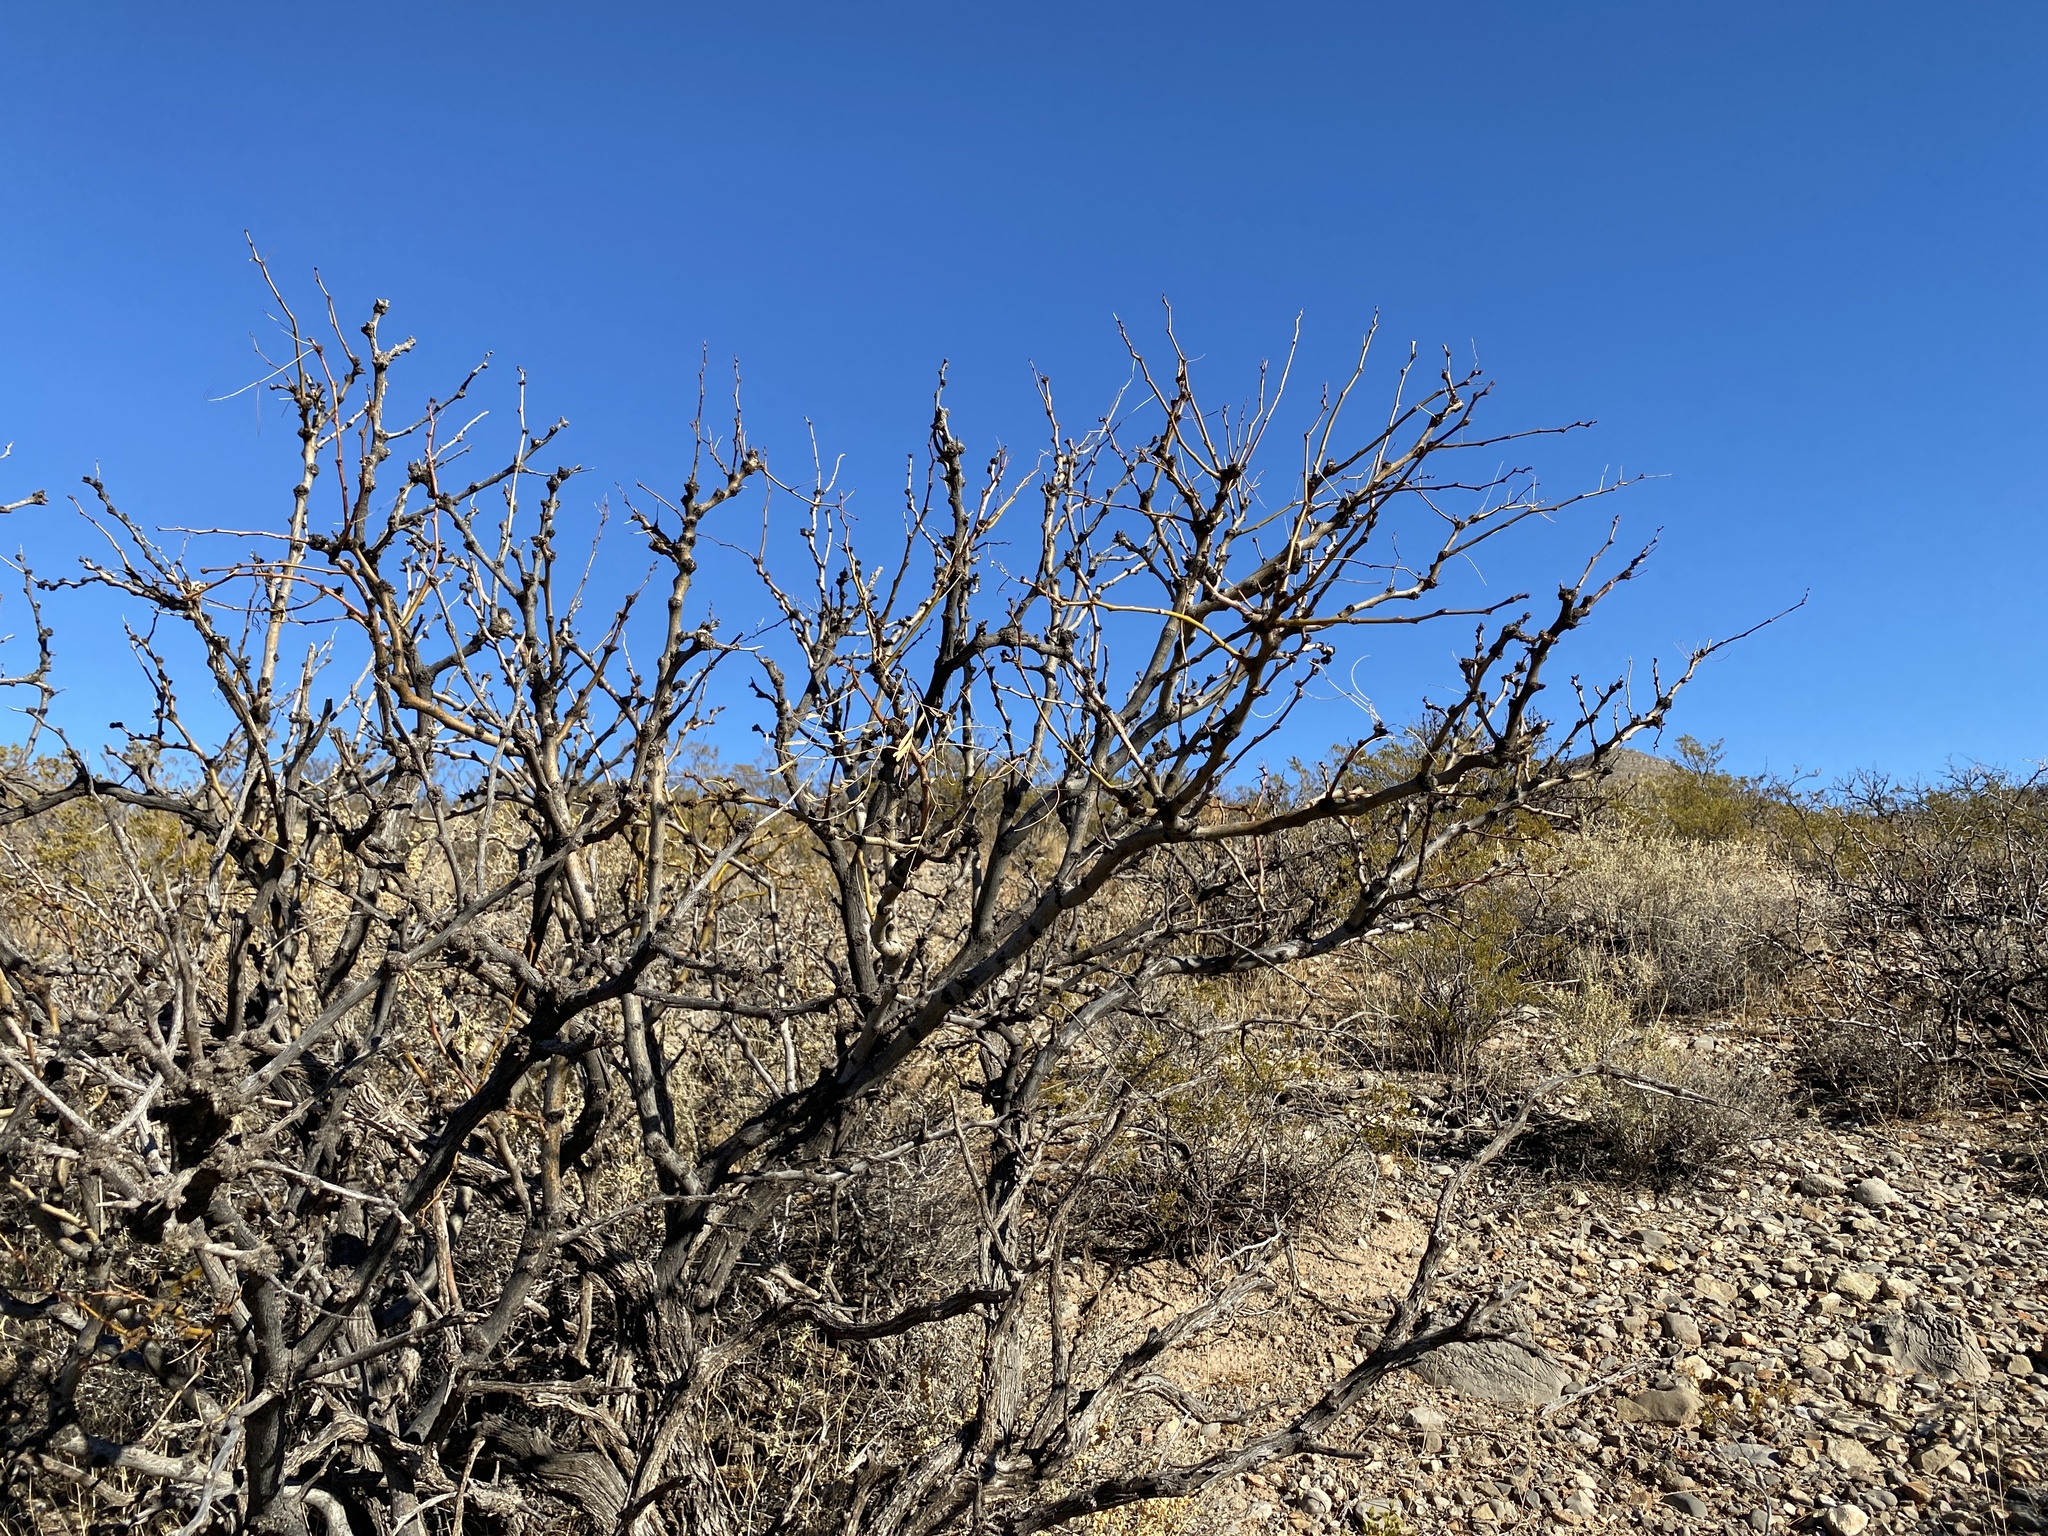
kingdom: Plantae
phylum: Tracheophyta
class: Magnoliopsida
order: Fabales
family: Fabaceae
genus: Prosopis
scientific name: Prosopis glandulosa
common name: Honey mesquite
